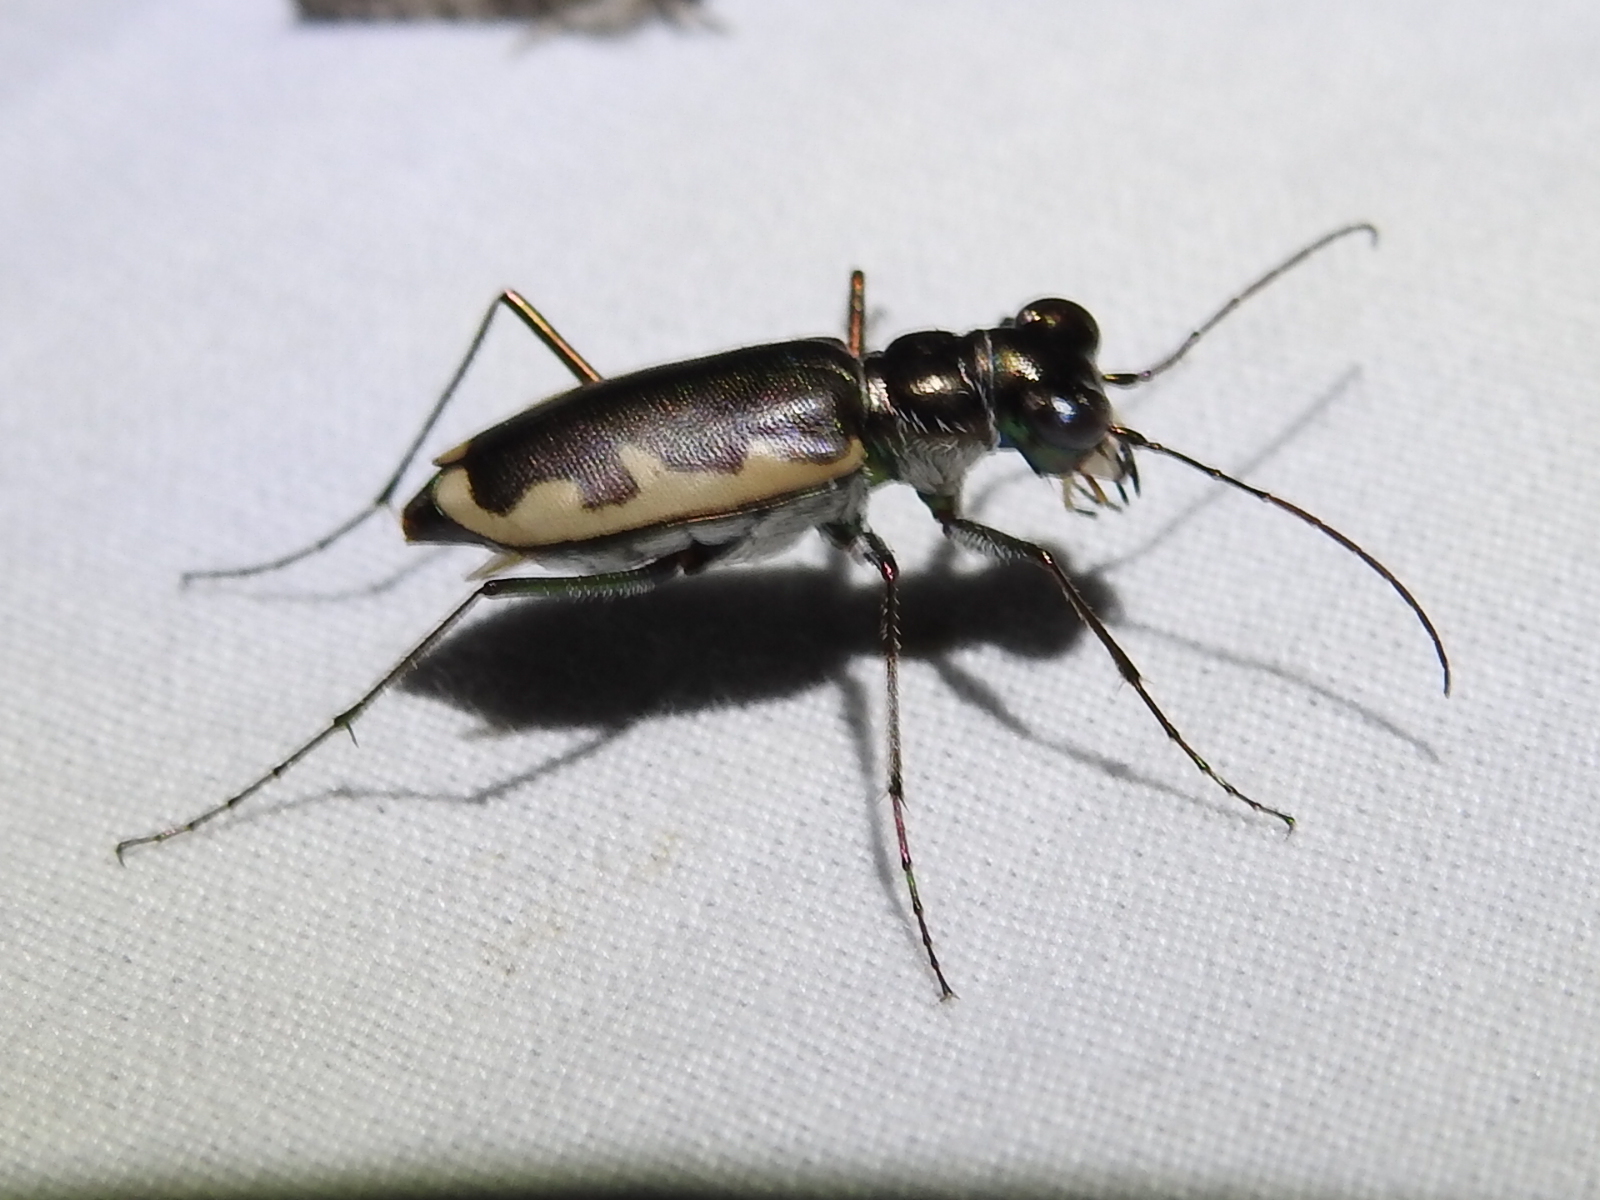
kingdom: Animalia
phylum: Arthropoda
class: Insecta
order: Coleoptera
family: Carabidae
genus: Eunota
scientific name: Eunota circumpicta
